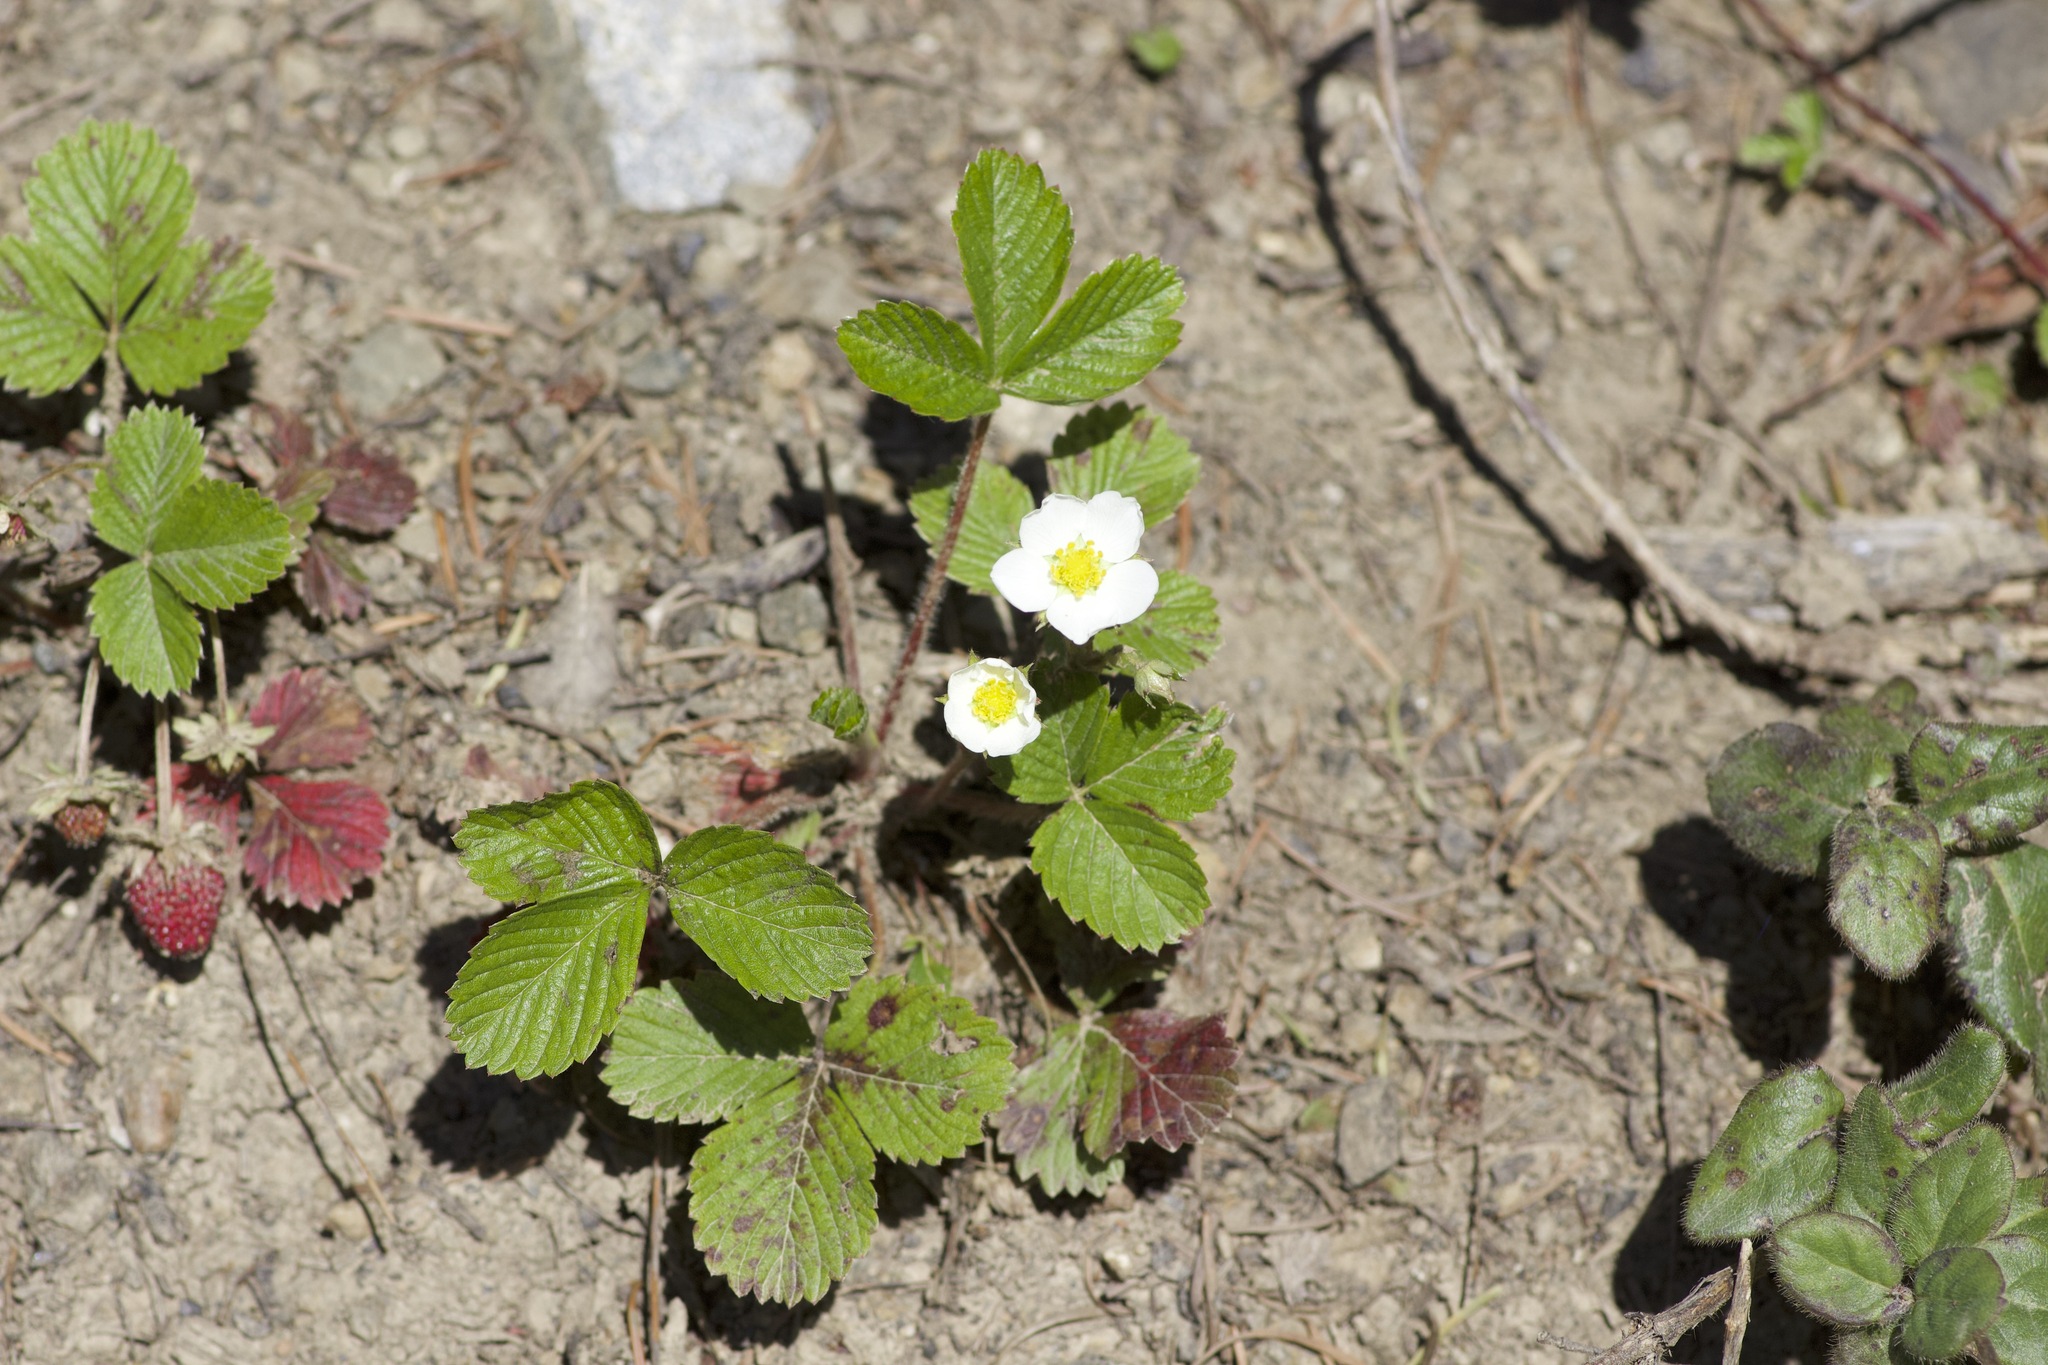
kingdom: Plantae
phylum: Tracheophyta
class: Magnoliopsida
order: Rosales
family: Rosaceae
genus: Fragaria
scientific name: Fragaria vesca
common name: Wild strawberry
